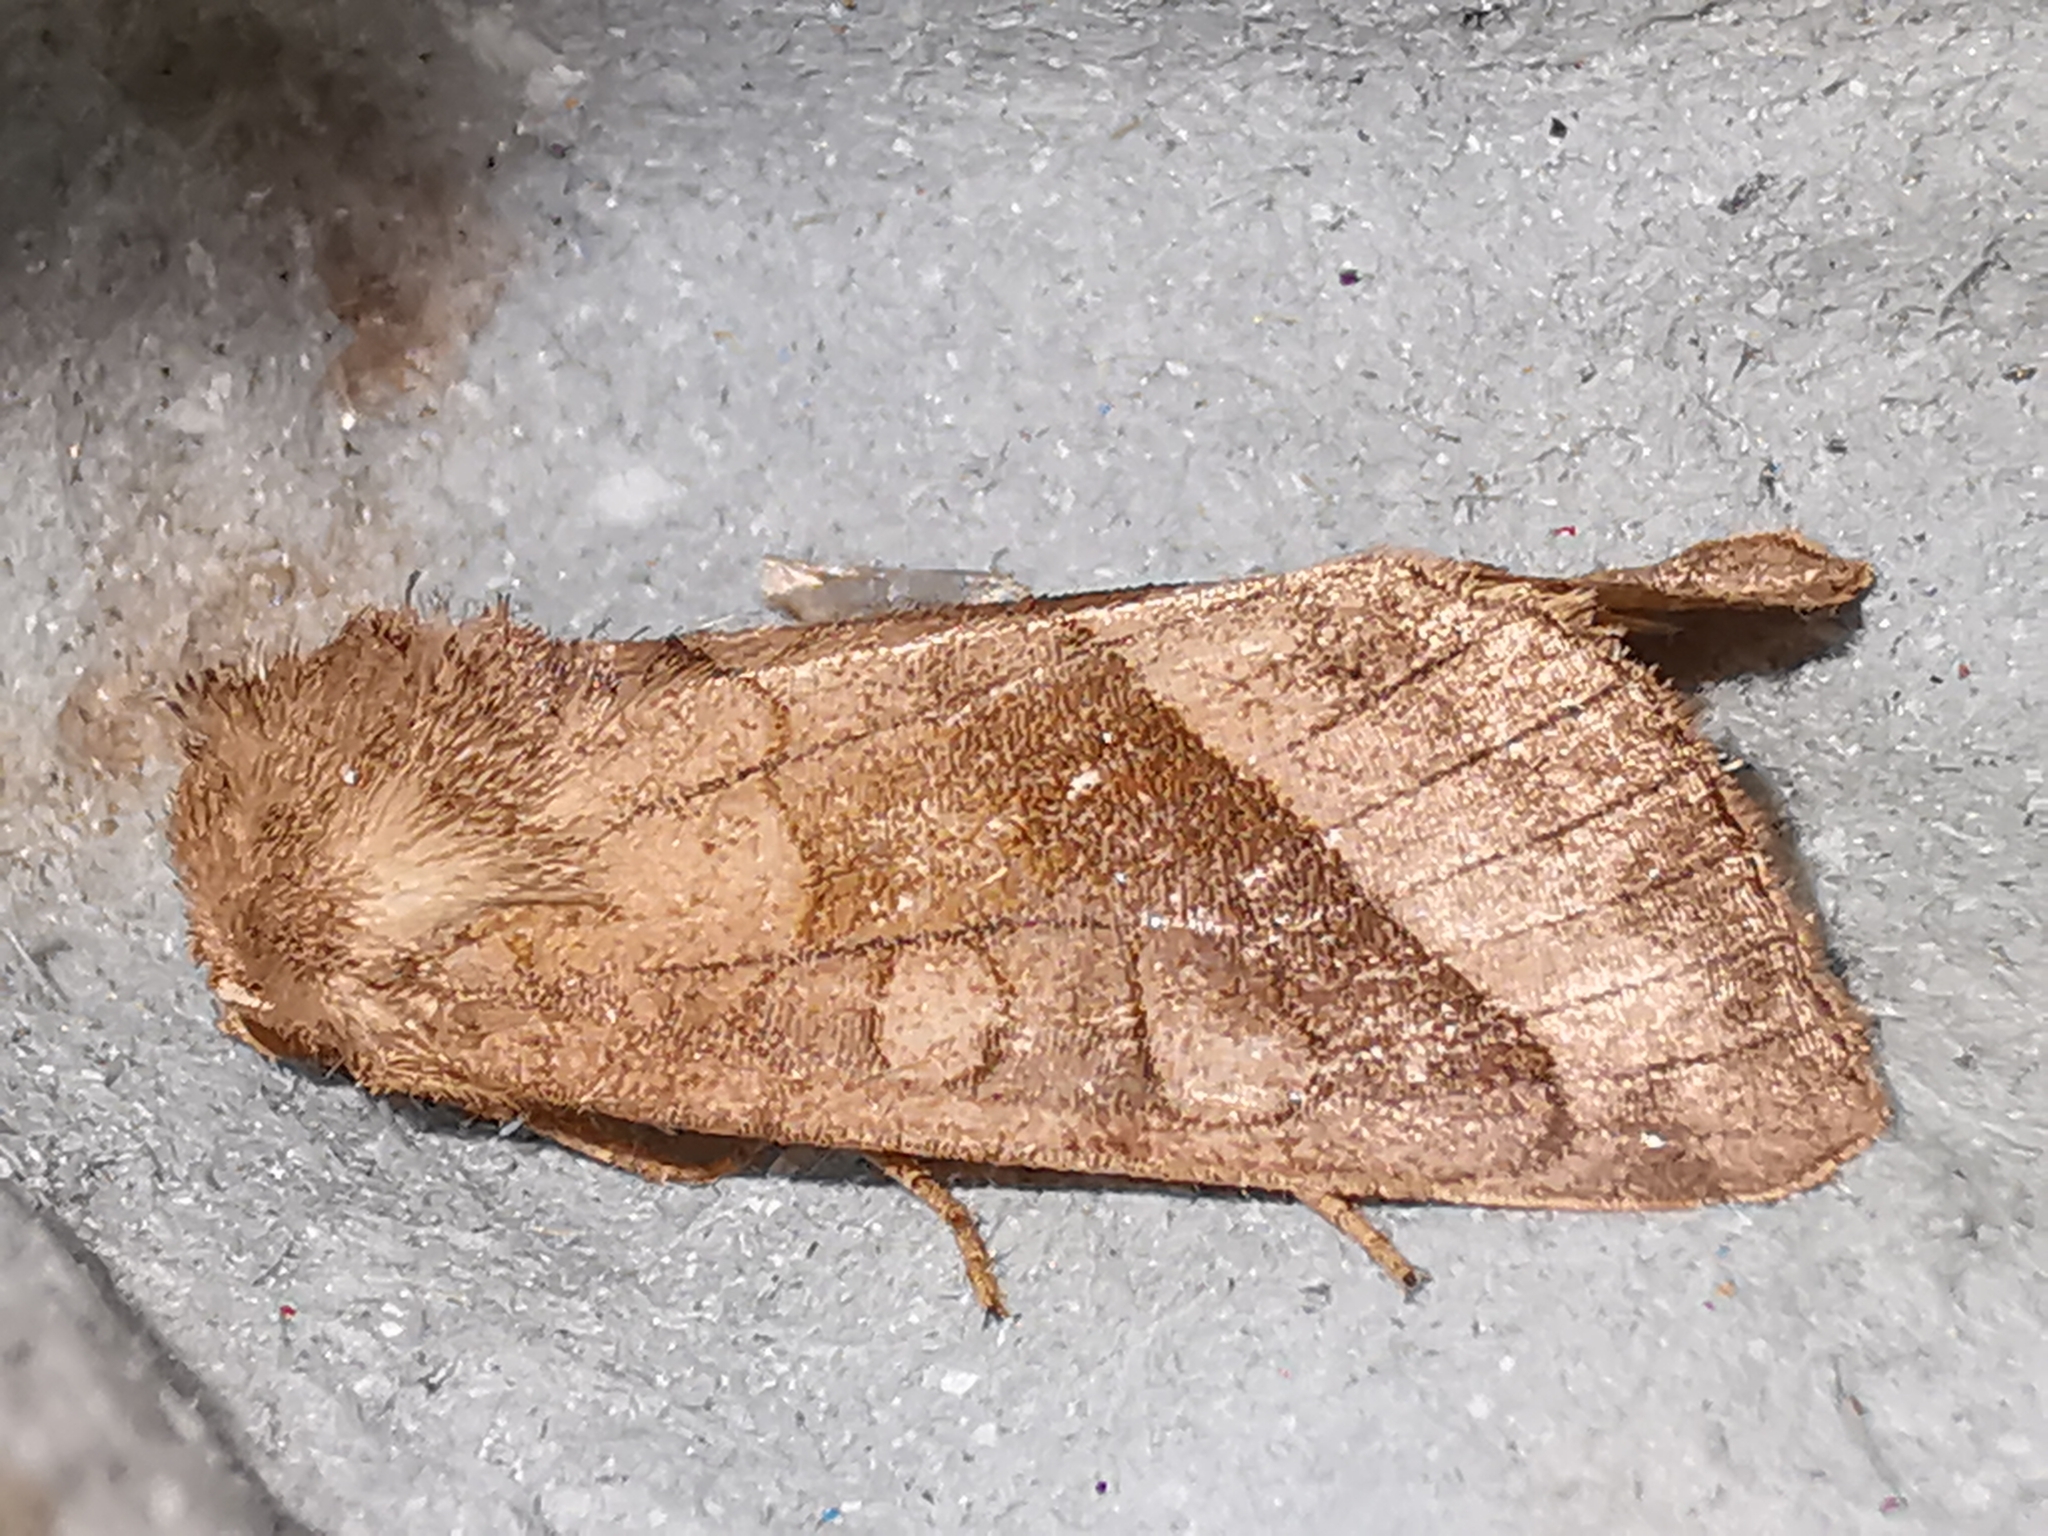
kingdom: Animalia
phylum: Arthropoda
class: Insecta
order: Lepidoptera
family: Noctuidae
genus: Hydraecia
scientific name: Hydraecia micacea
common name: Rosy rustic
